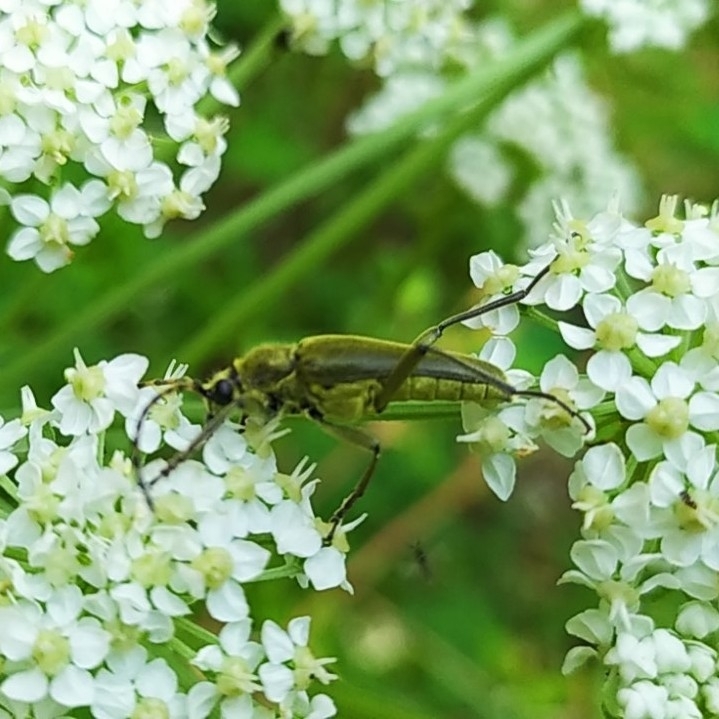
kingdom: Animalia
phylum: Arthropoda
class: Insecta
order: Coleoptera
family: Cerambycidae
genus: Lepturobosca
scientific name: Lepturobosca virens
